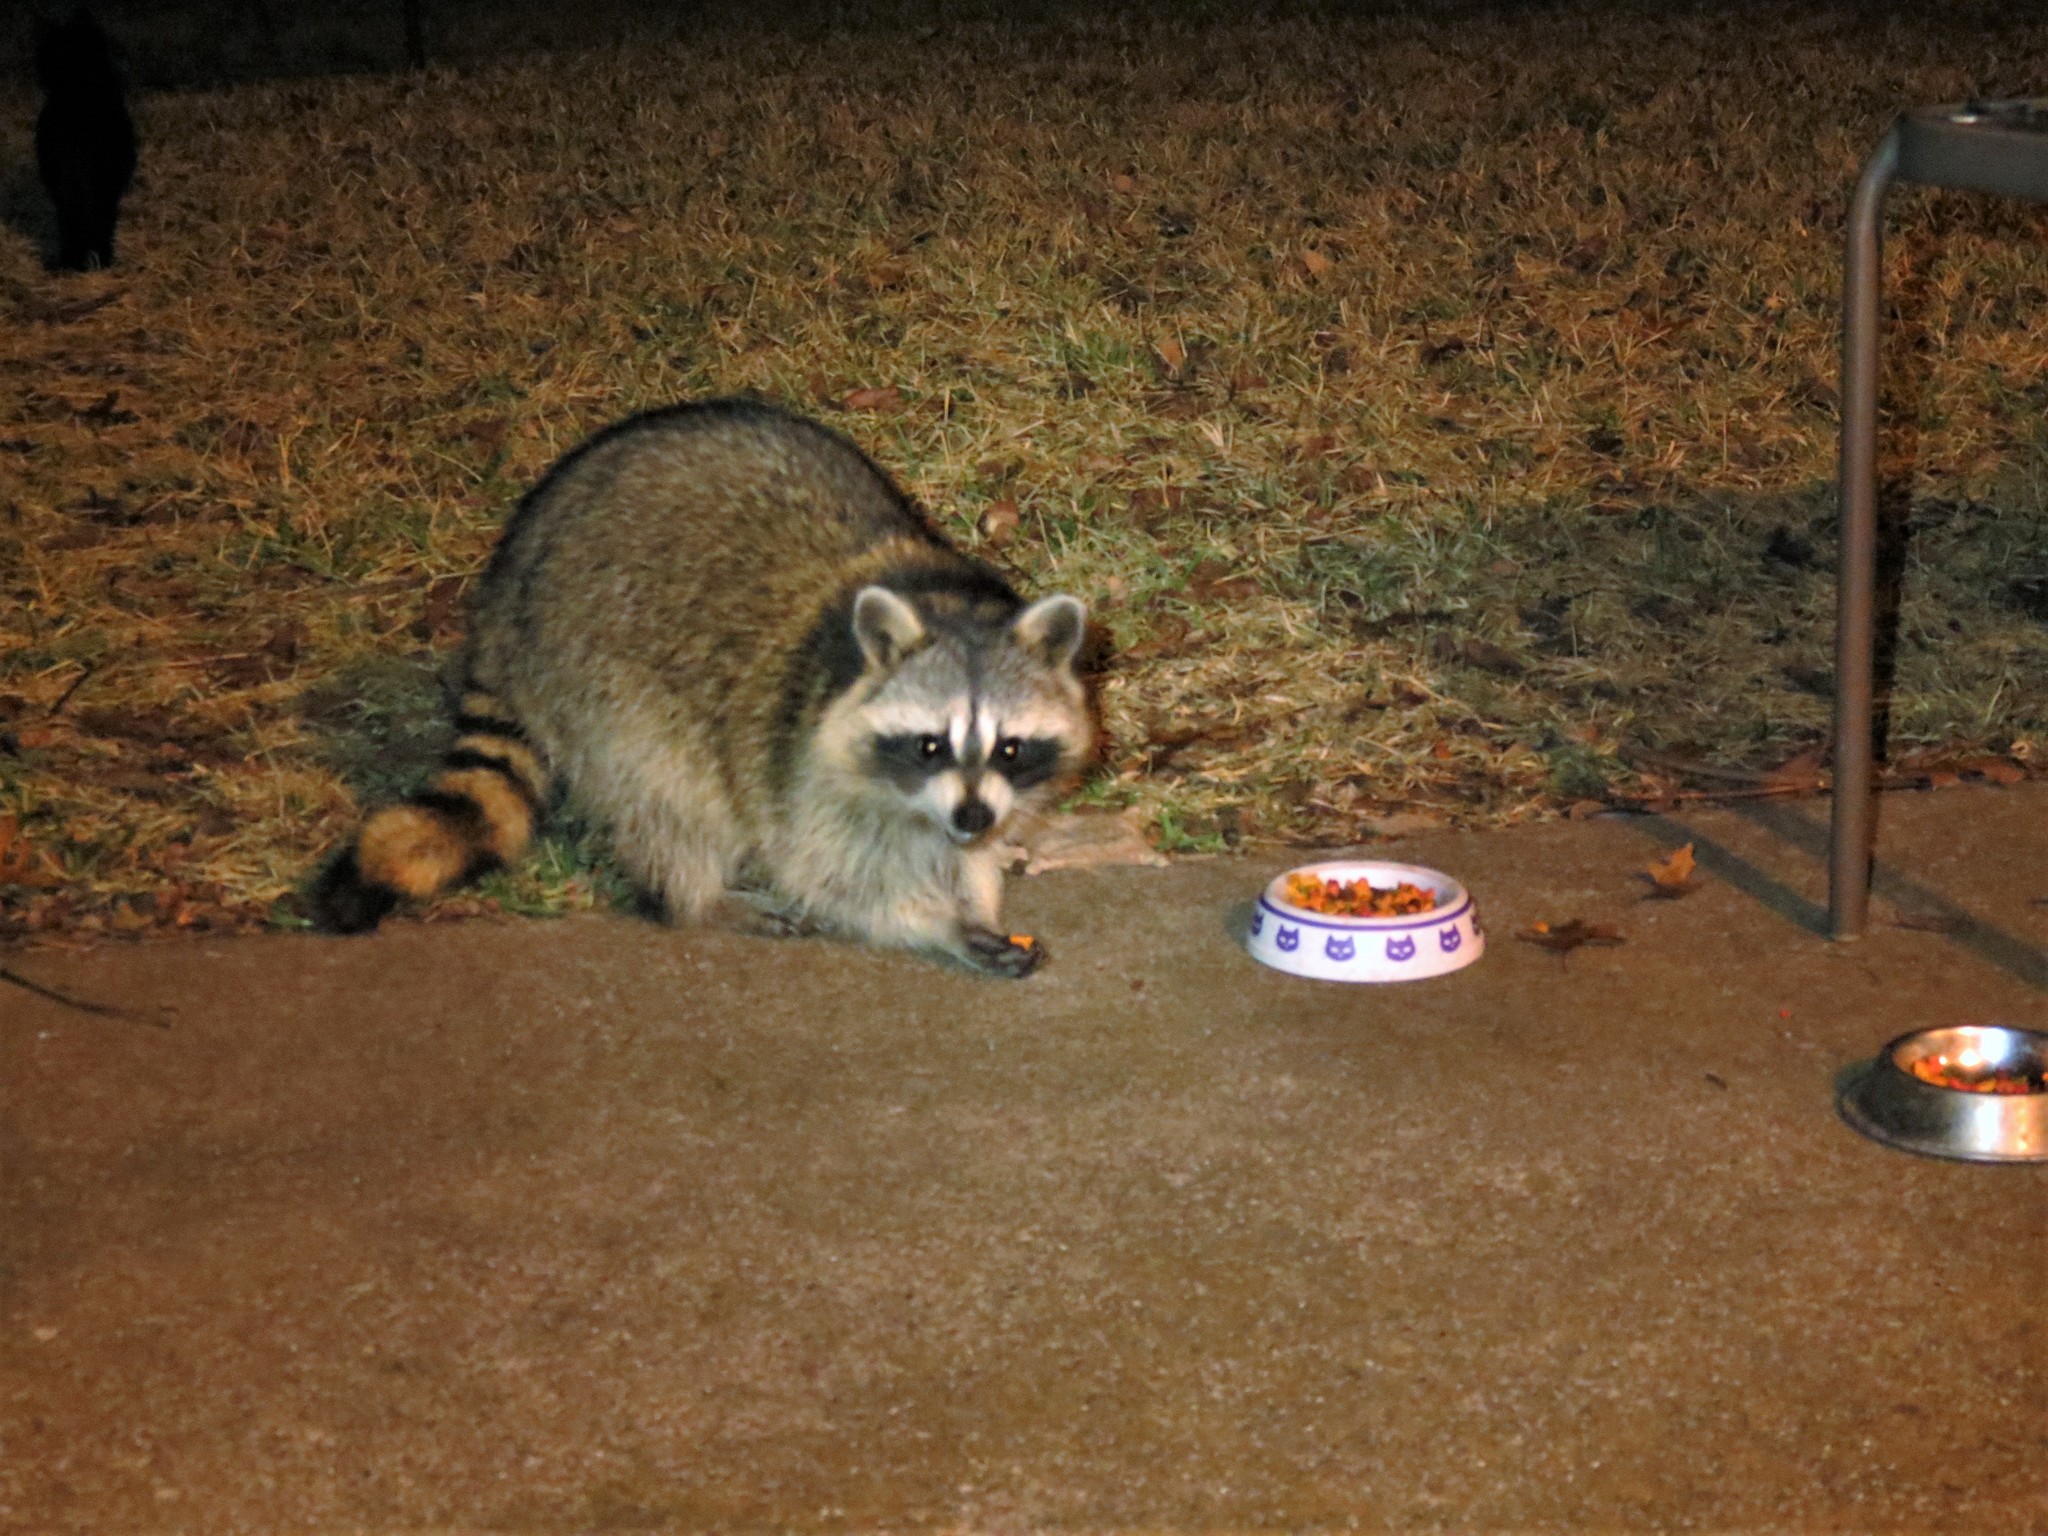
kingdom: Animalia
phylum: Chordata
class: Mammalia
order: Carnivora
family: Procyonidae
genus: Procyon
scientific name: Procyon lotor
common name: Raccoon
